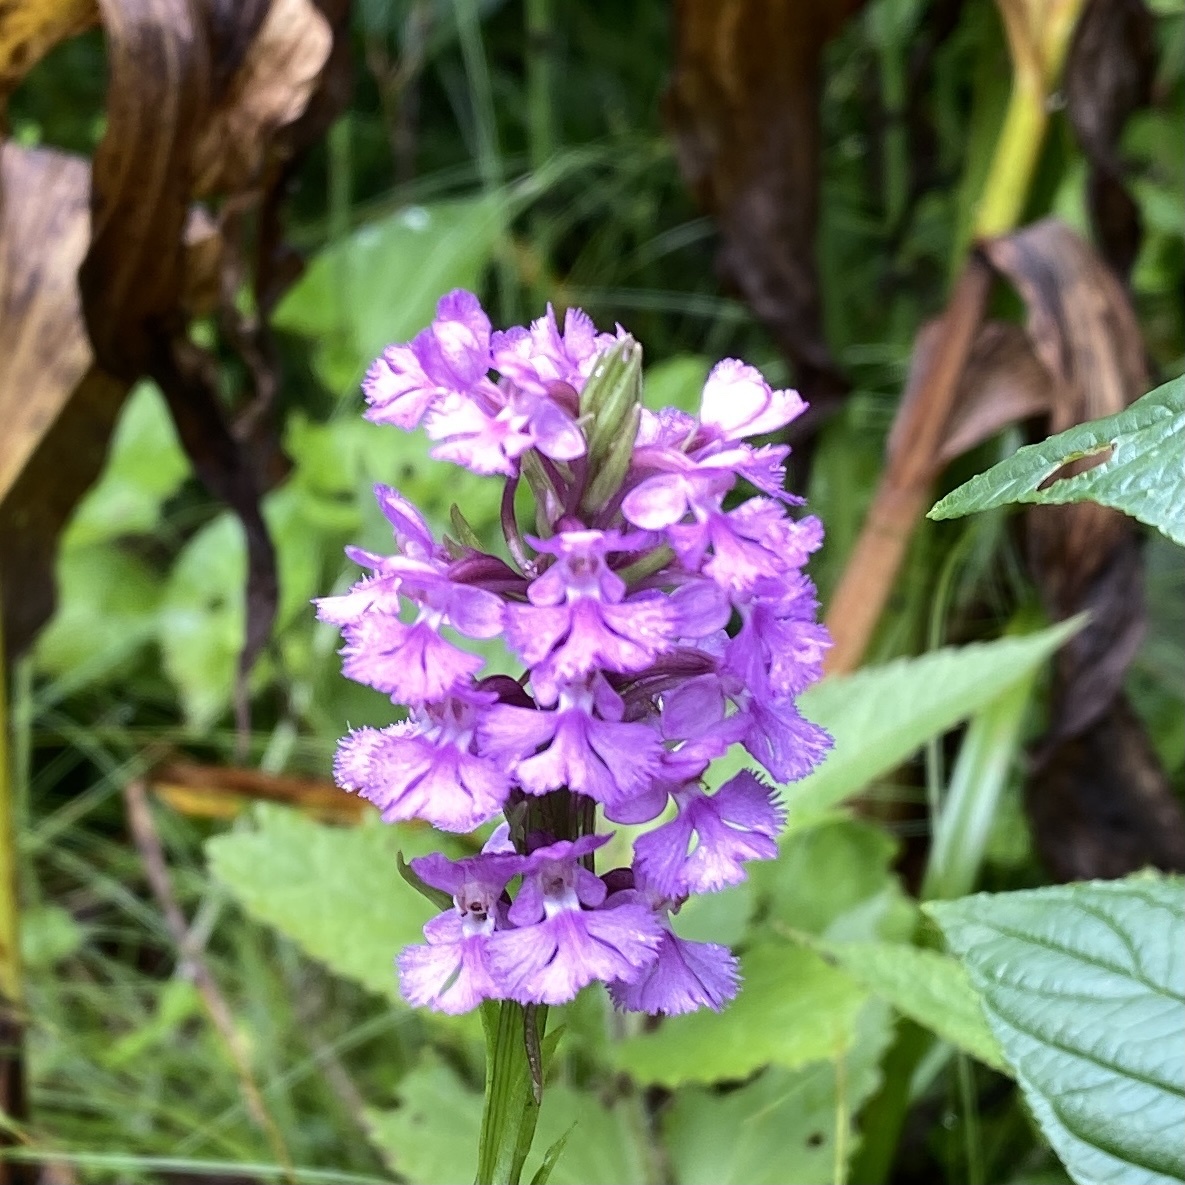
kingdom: Plantae
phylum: Tracheophyta
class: Liliopsida
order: Asparagales
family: Orchidaceae
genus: Platanthera
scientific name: Platanthera psycodes
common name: Lesser purple fringed orchid
